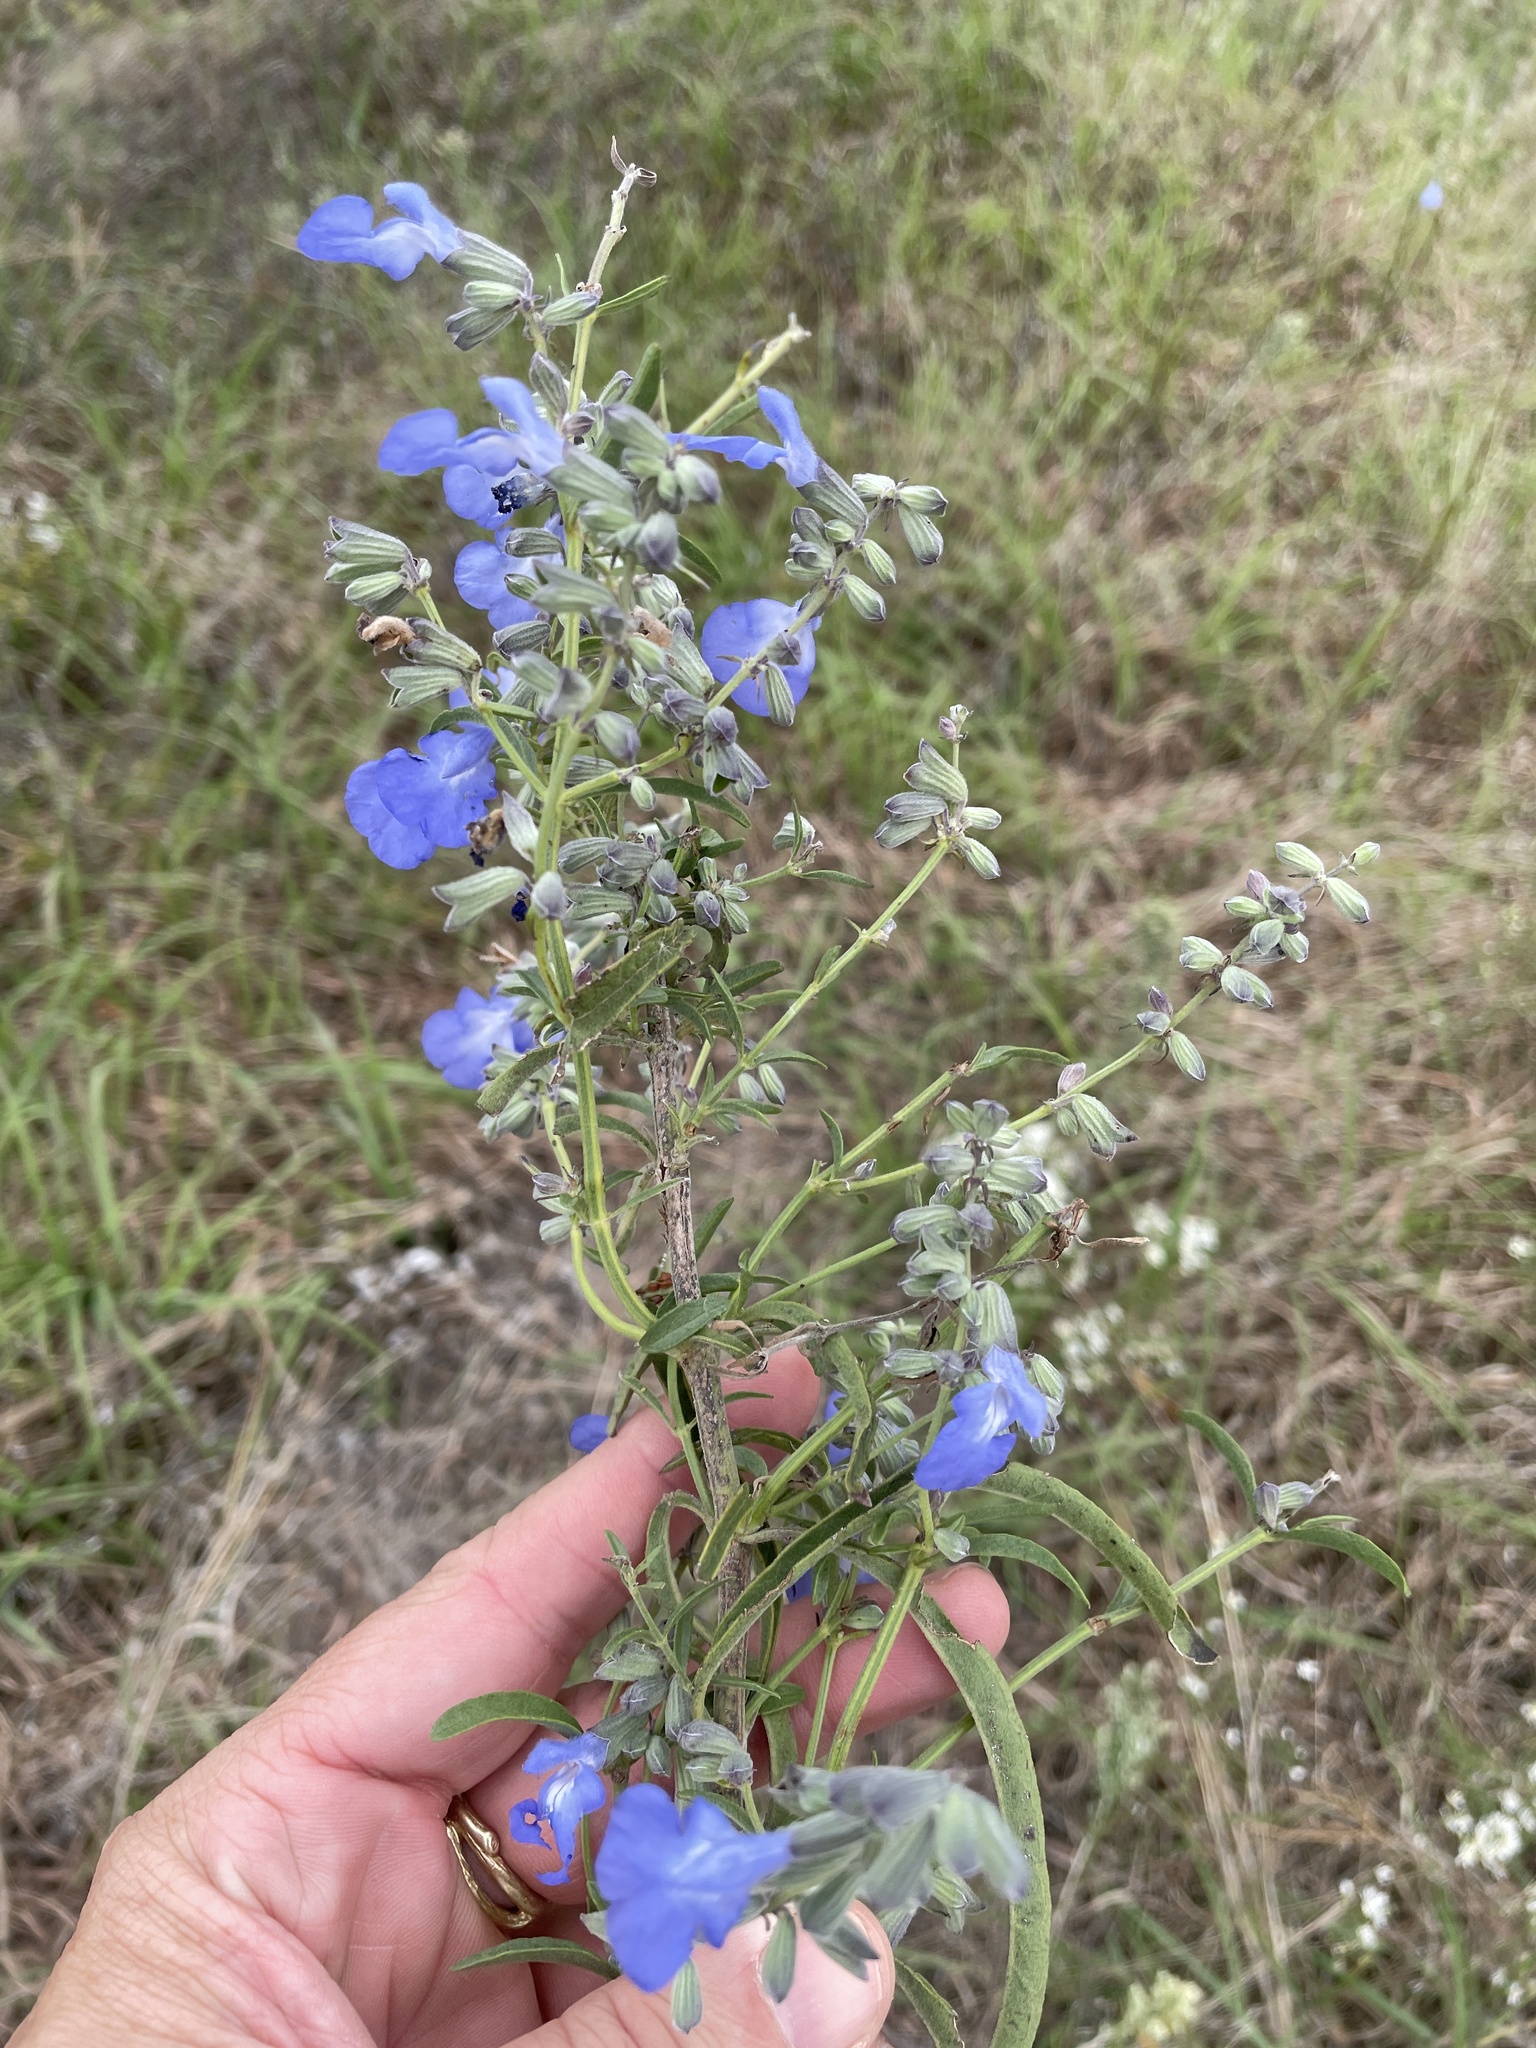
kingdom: Plantae
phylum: Tracheophyta
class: Magnoliopsida
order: Lamiales
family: Lamiaceae
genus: Salvia
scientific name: Salvia azurea
